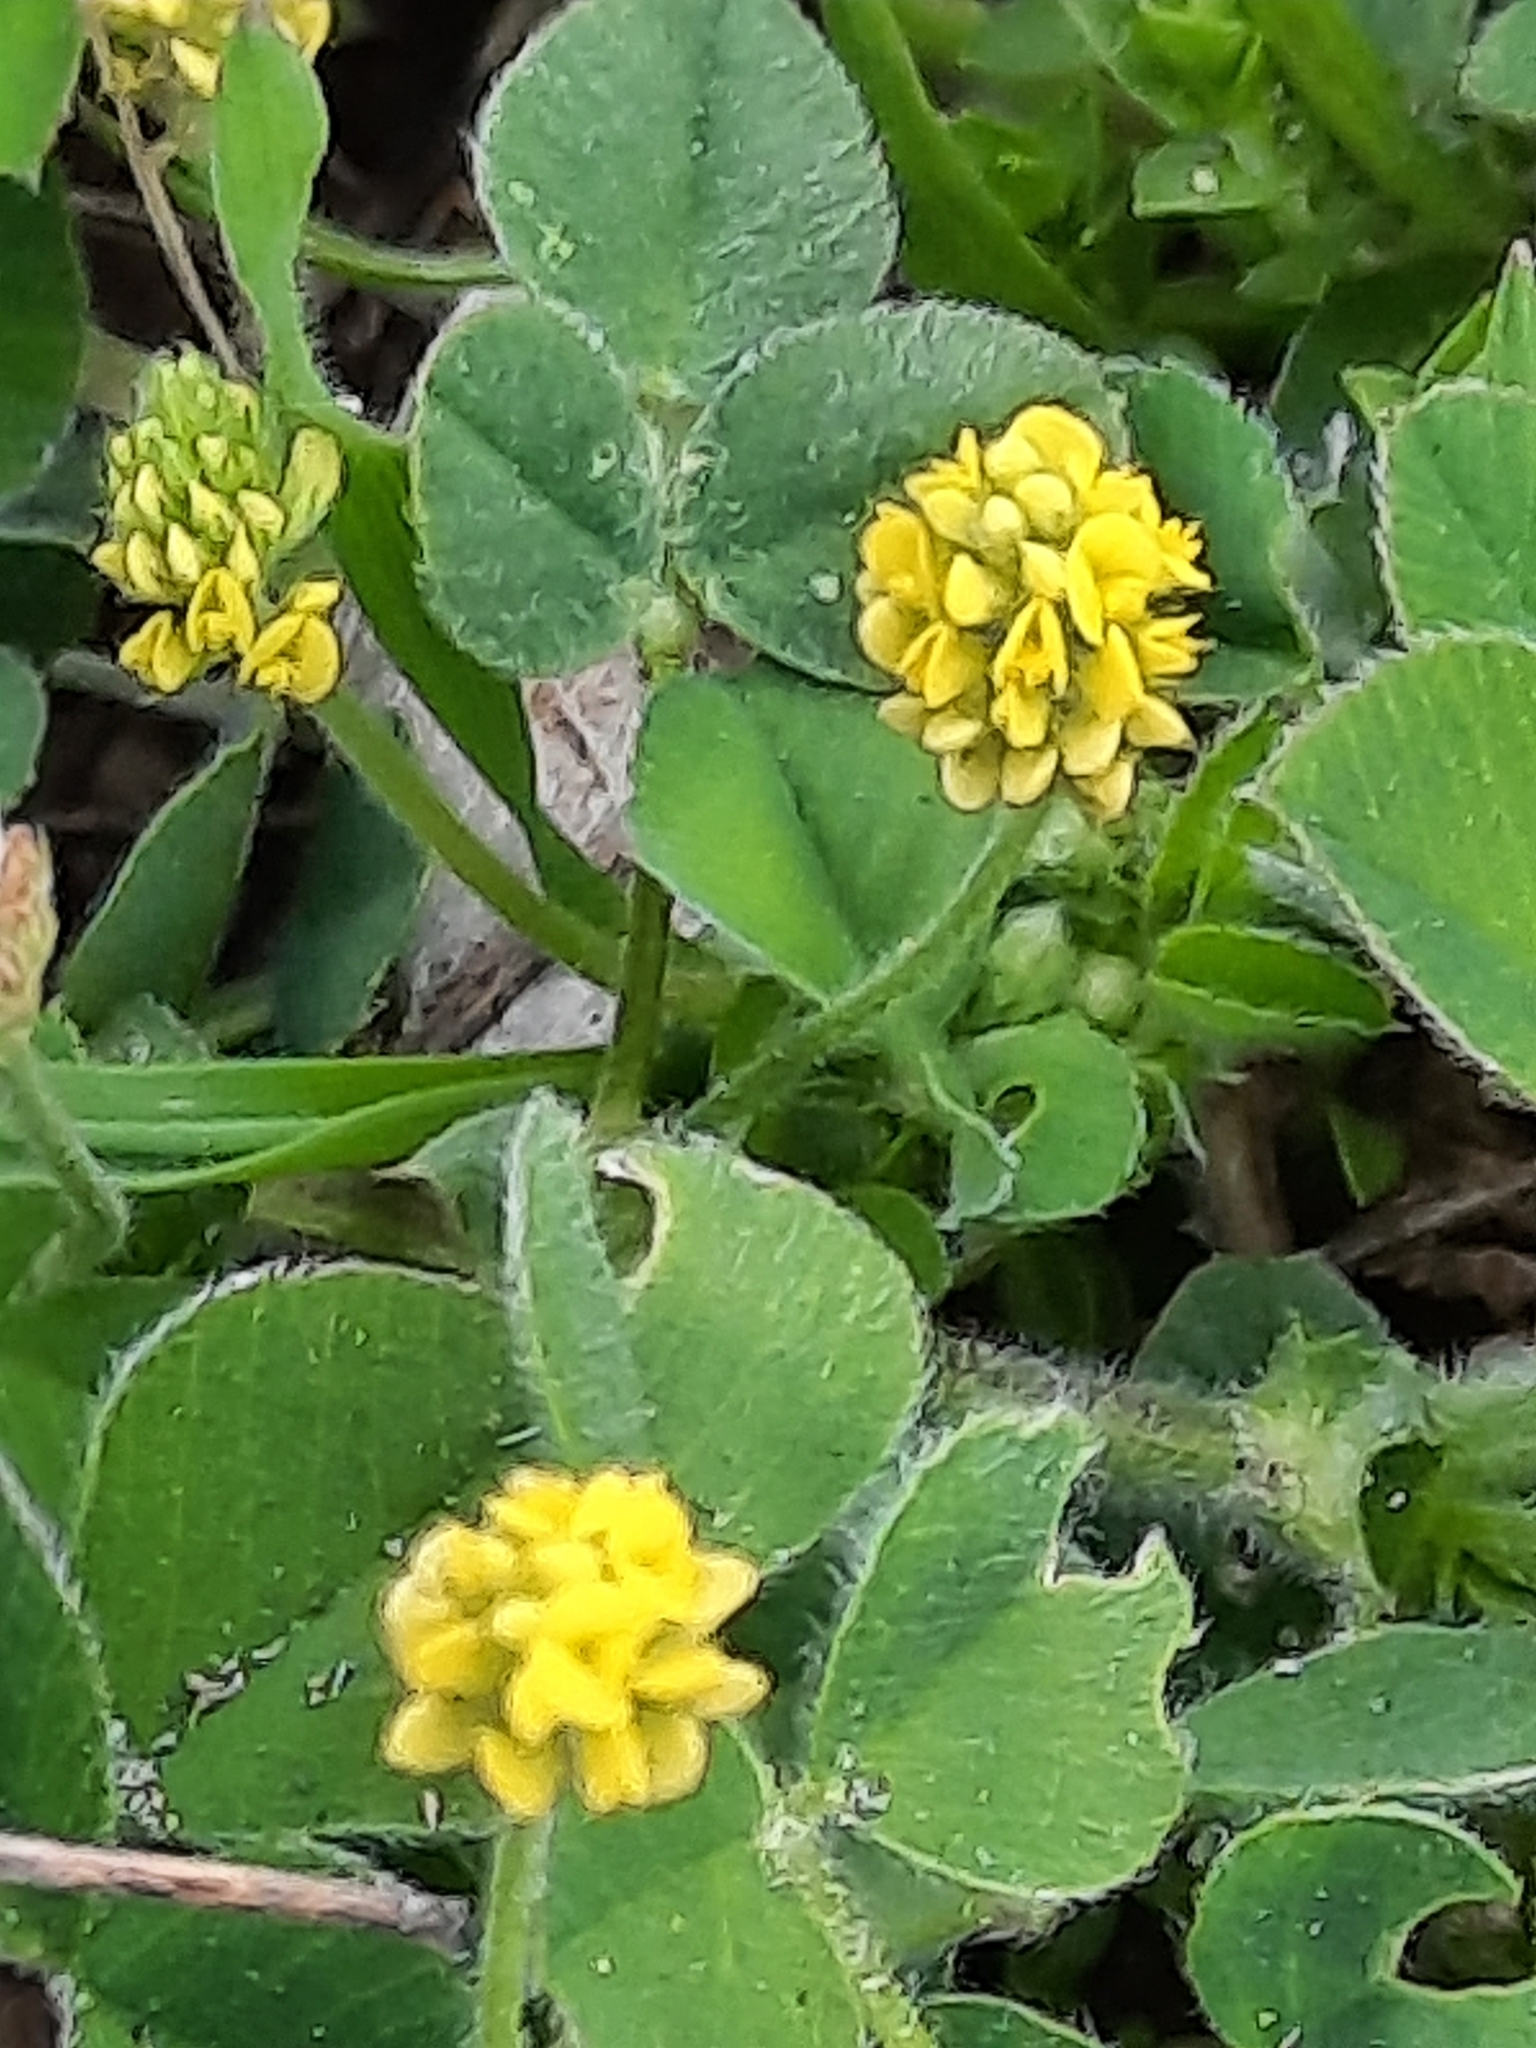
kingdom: Plantae
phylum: Tracheophyta
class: Magnoliopsida
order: Fabales
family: Fabaceae
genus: Medicago
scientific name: Medicago lupulina
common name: Black medick
